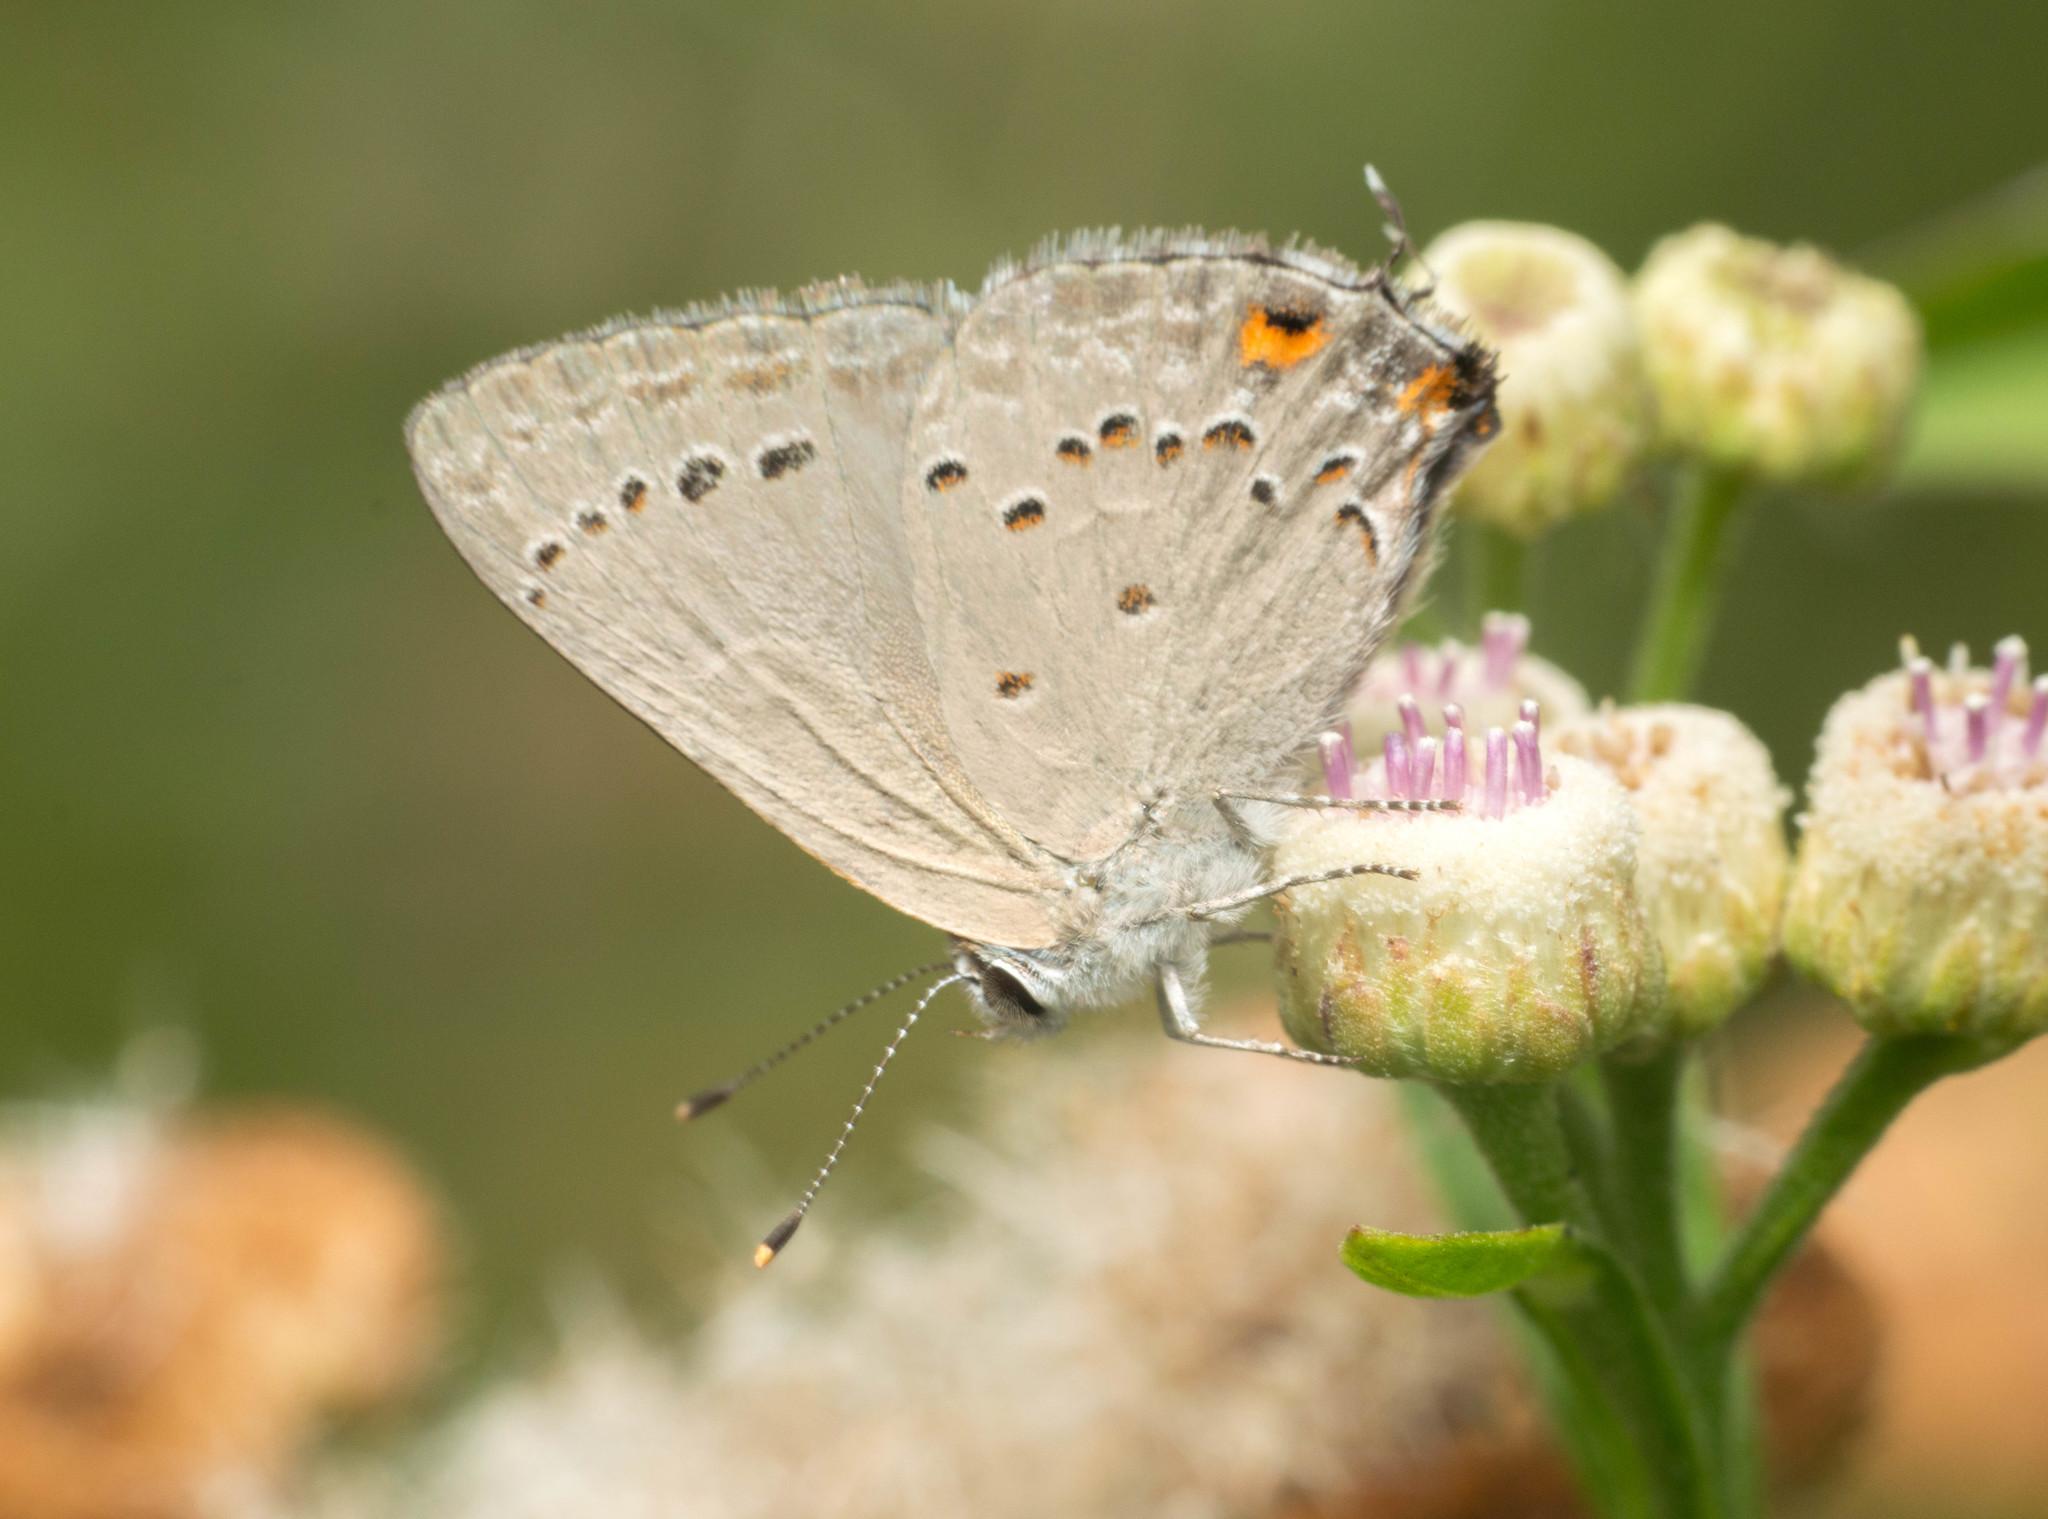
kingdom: Animalia
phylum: Arthropoda
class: Insecta
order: Lepidoptera
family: Lycaenidae
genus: Strymon
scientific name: Strymon eurytulus
